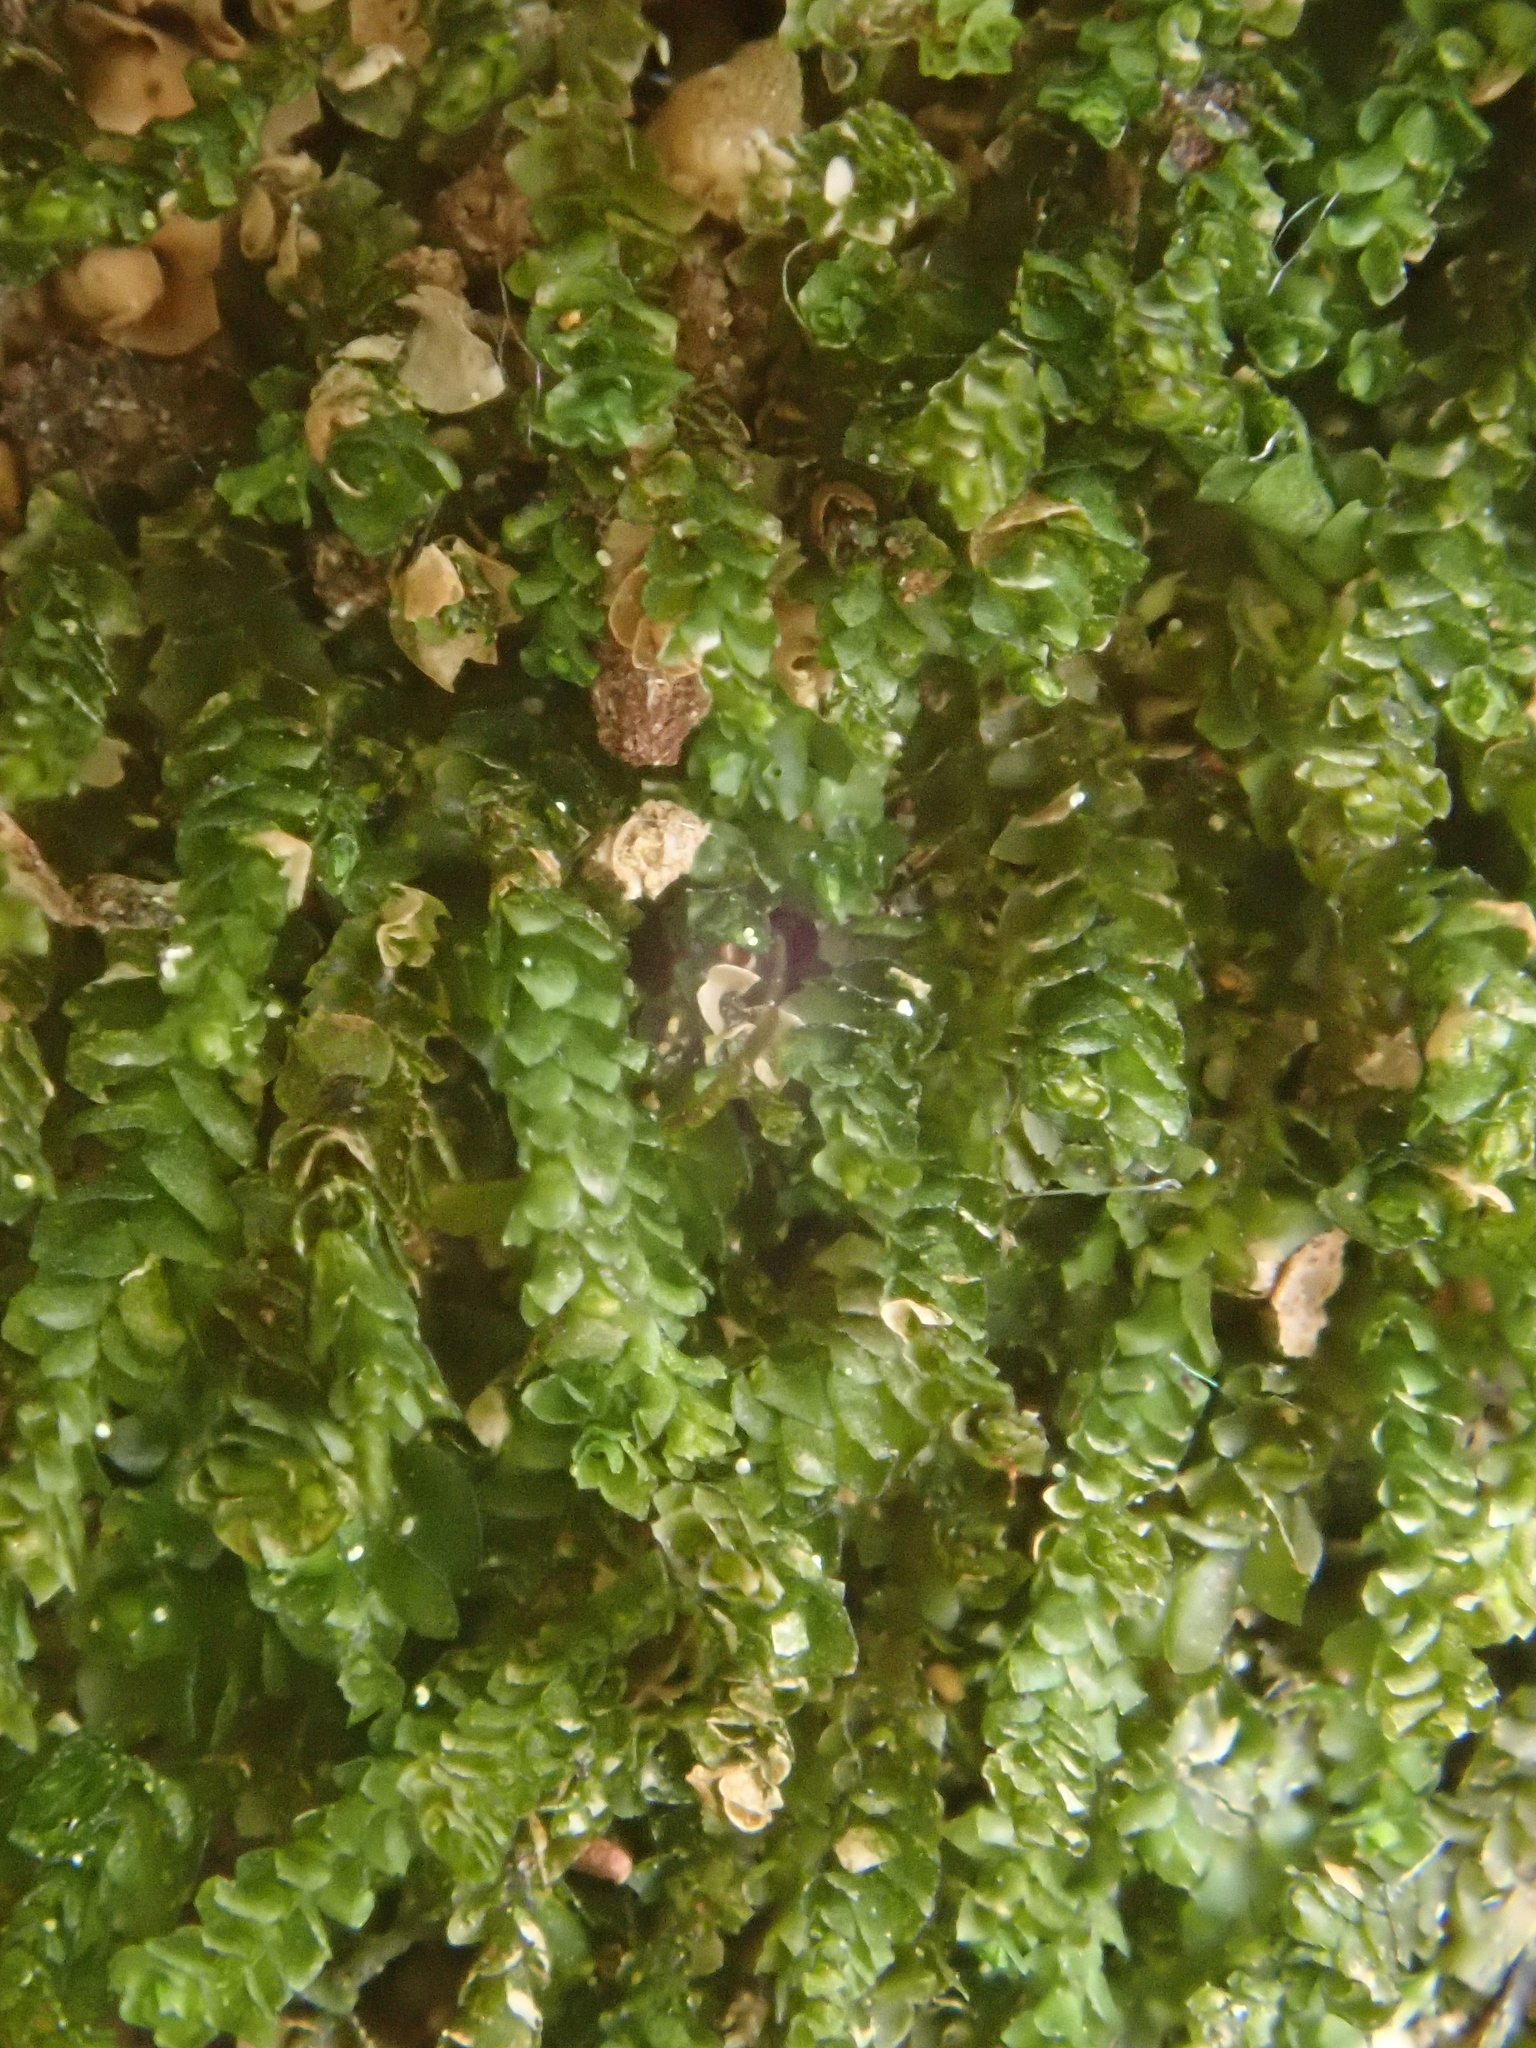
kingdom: Plantae
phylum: Marchantiophyta
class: Jungermanniopsida
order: Jungermanniales
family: Gymnomitriaceae
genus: Marsupella
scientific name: Marsupella emarginata
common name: Notched rustwort
